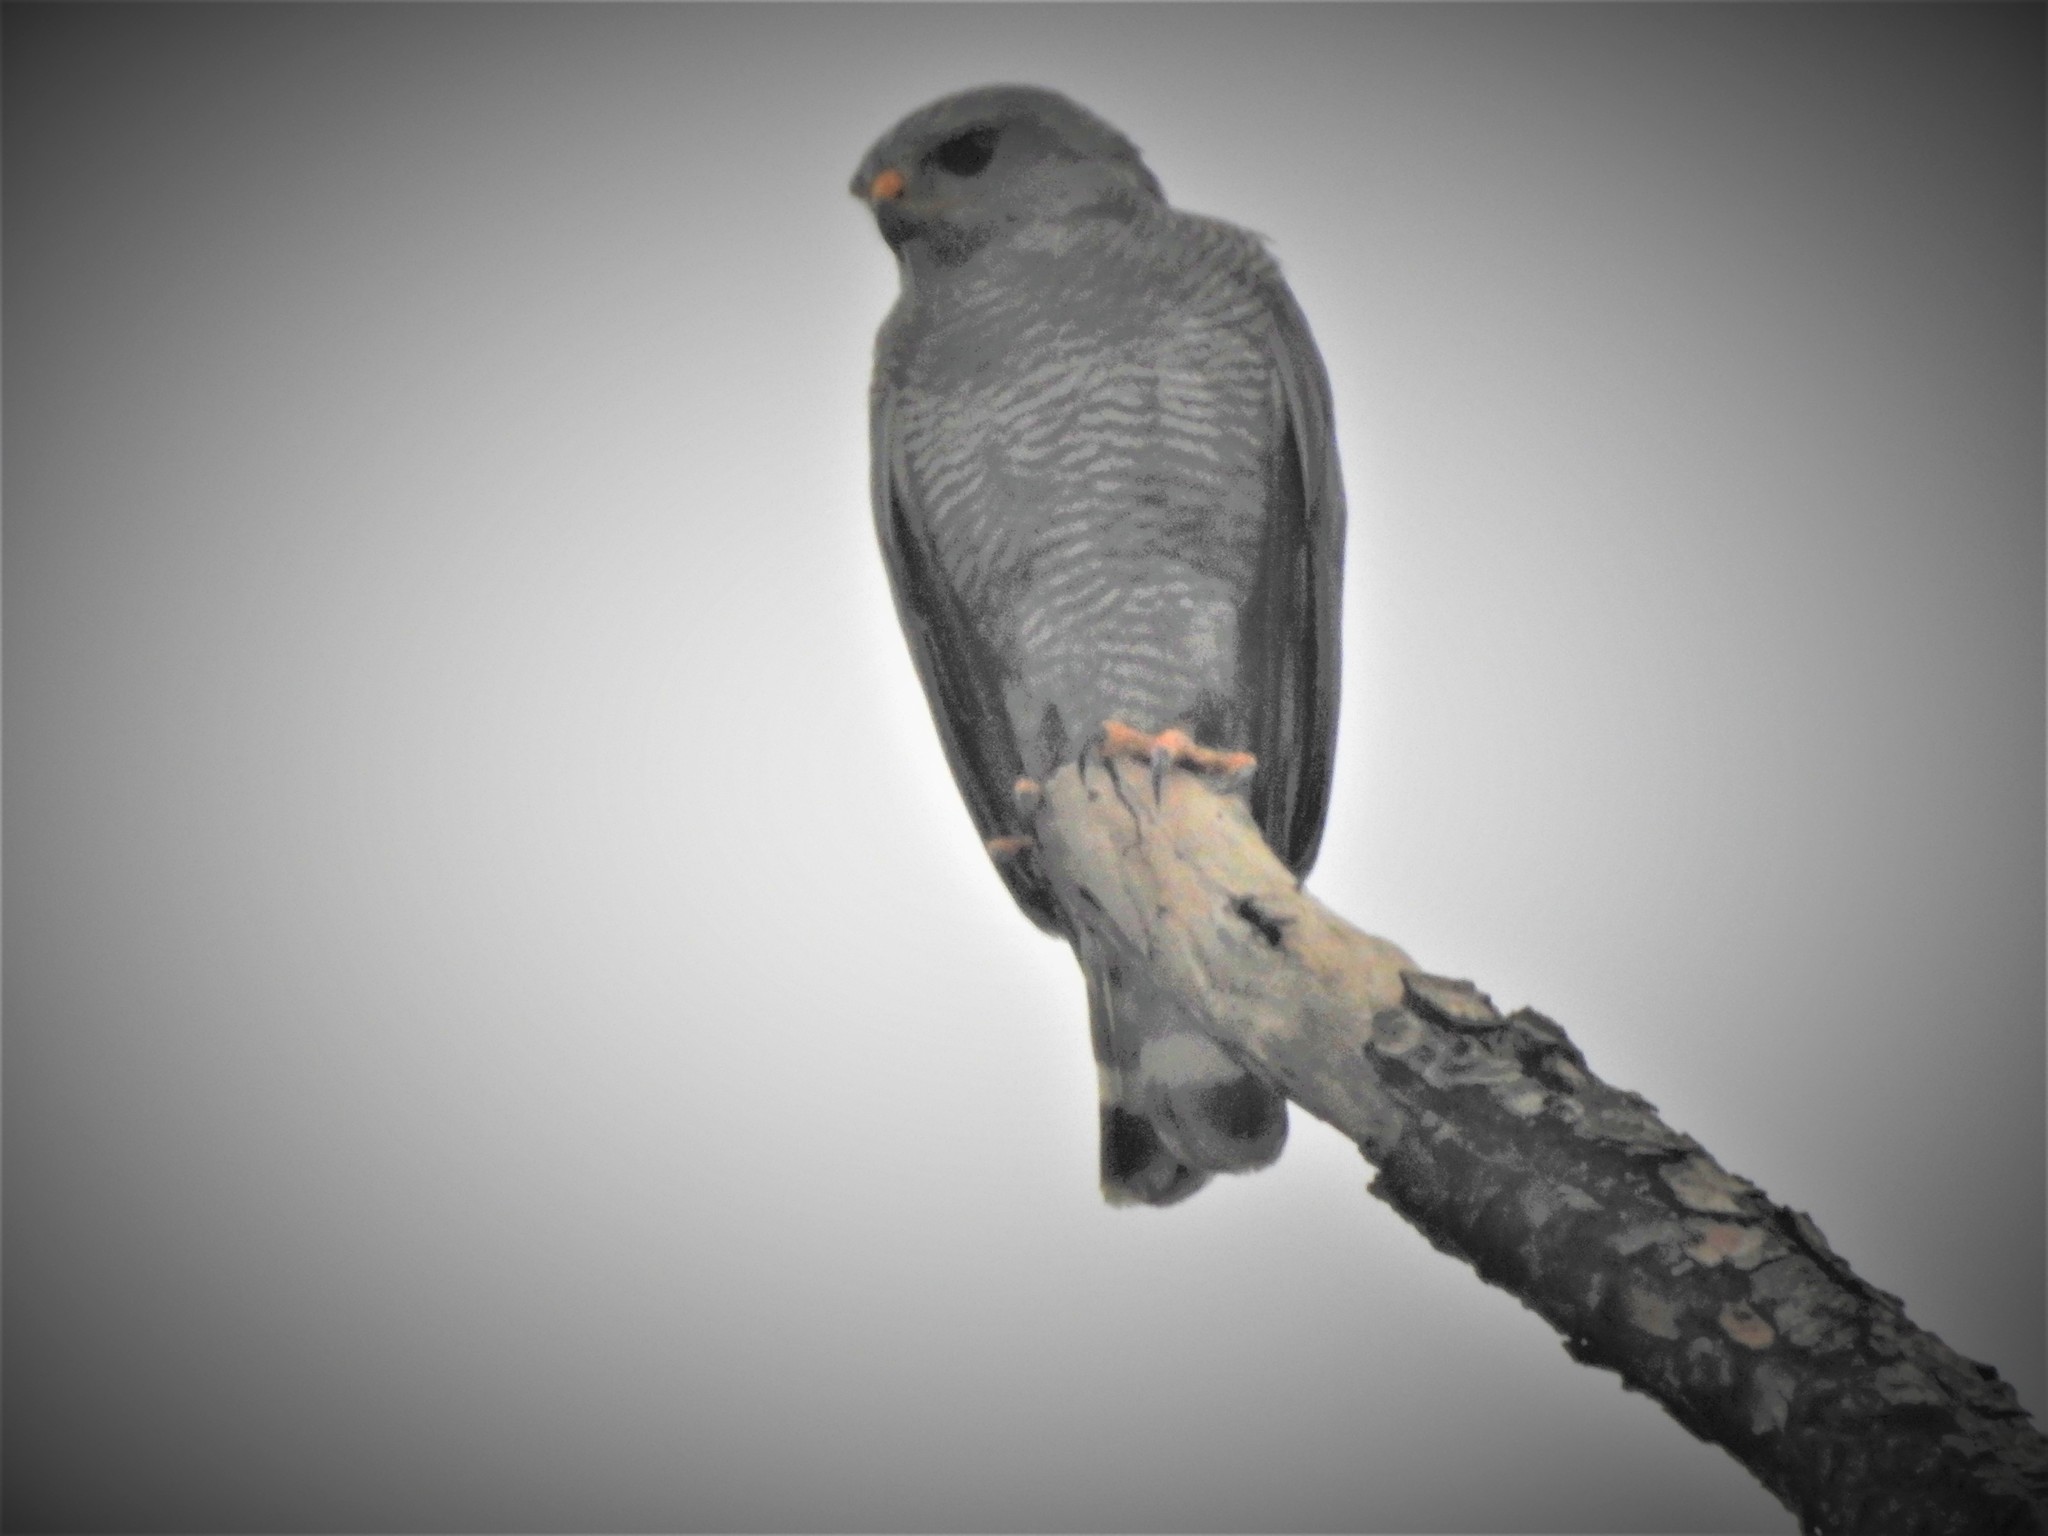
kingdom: Animalia
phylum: Chordata
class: Aves
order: Accipitriformes
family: Accipitridae
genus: Buteo
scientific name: Buteo nitidus
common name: Grey-lined hawk
